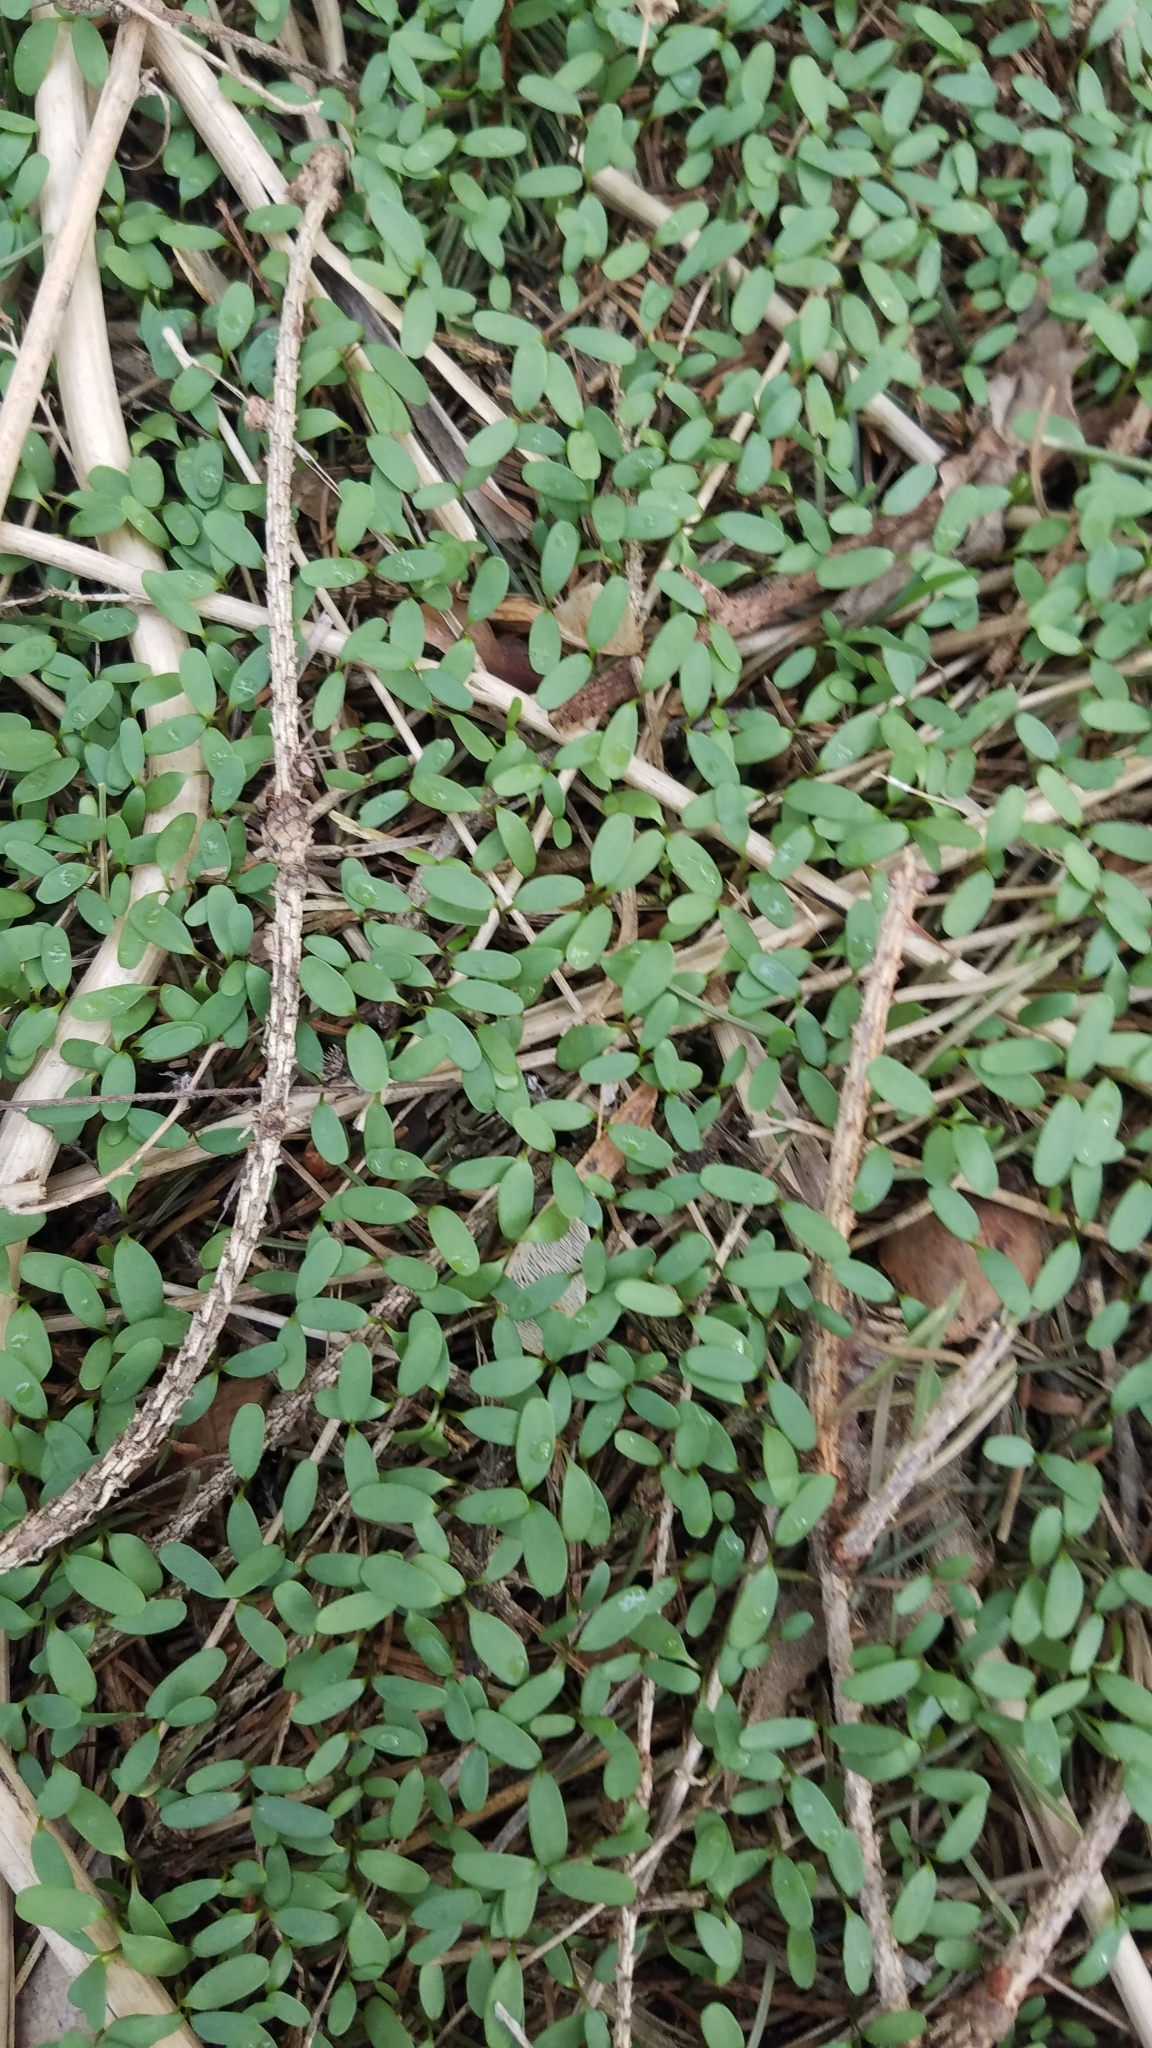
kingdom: Plantae
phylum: Tracheophyta
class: Magnoliopsida
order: Brassicales
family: Brassicaceae
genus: Alliaria
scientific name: Alliaria petiolata
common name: Garlic mustard
